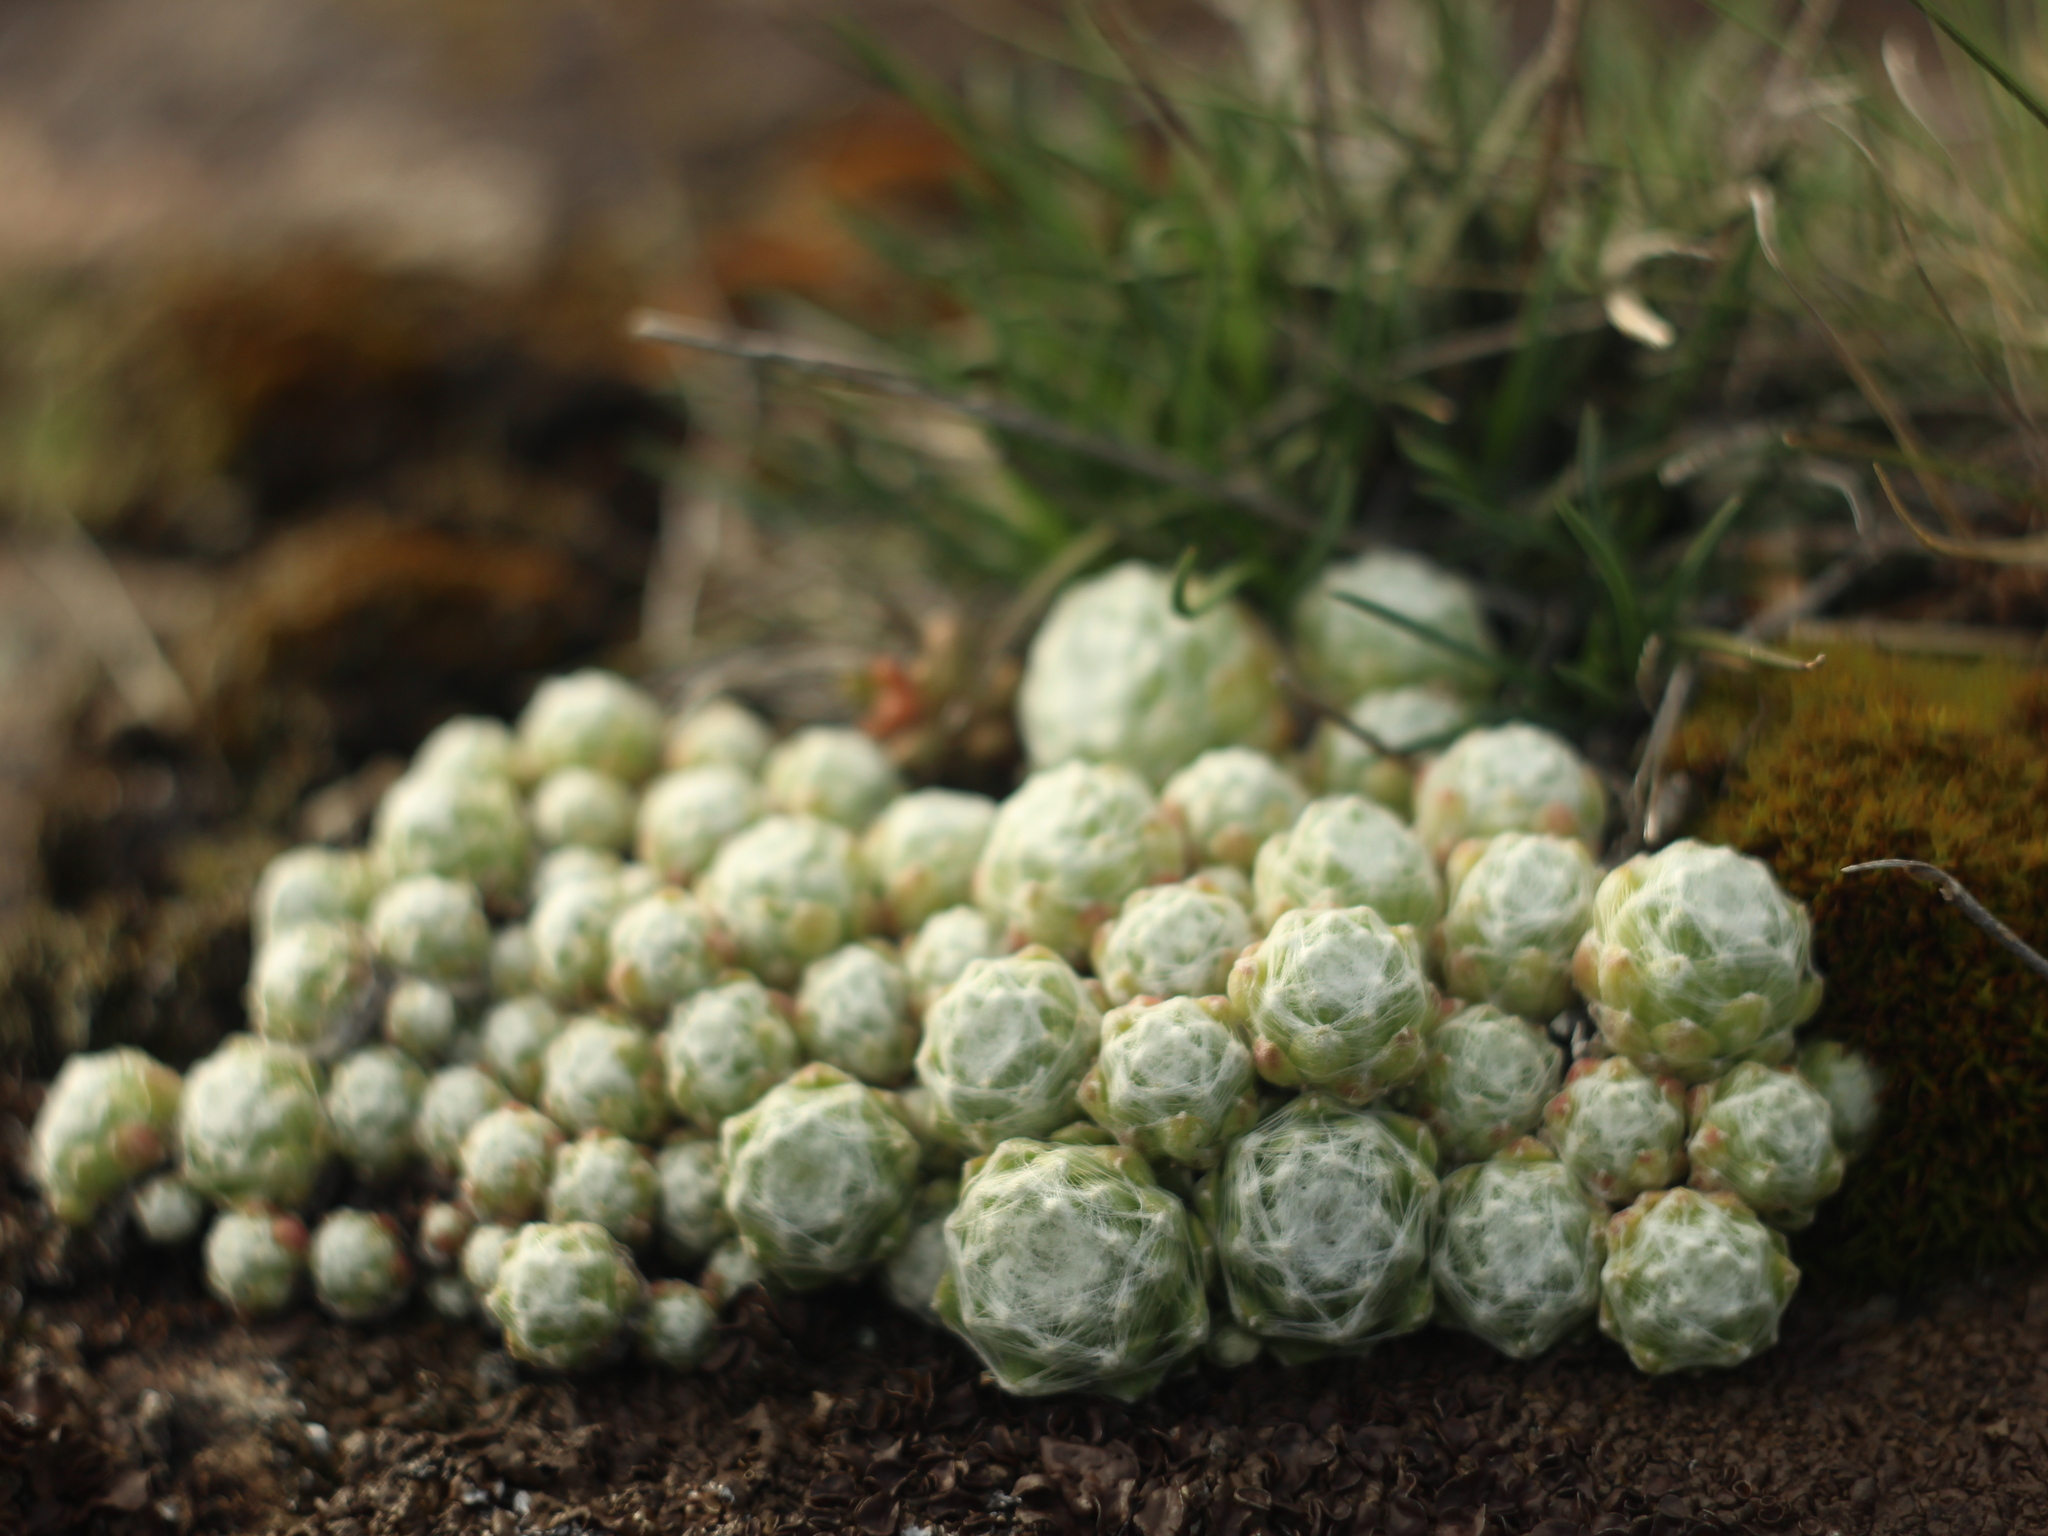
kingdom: Plantae
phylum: Tracheophyta
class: Magnoliopsida
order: Saxifragales
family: Crassulaceae
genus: Sempervivum
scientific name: Sempervivum arachnoideum
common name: Cobweb house-leek
